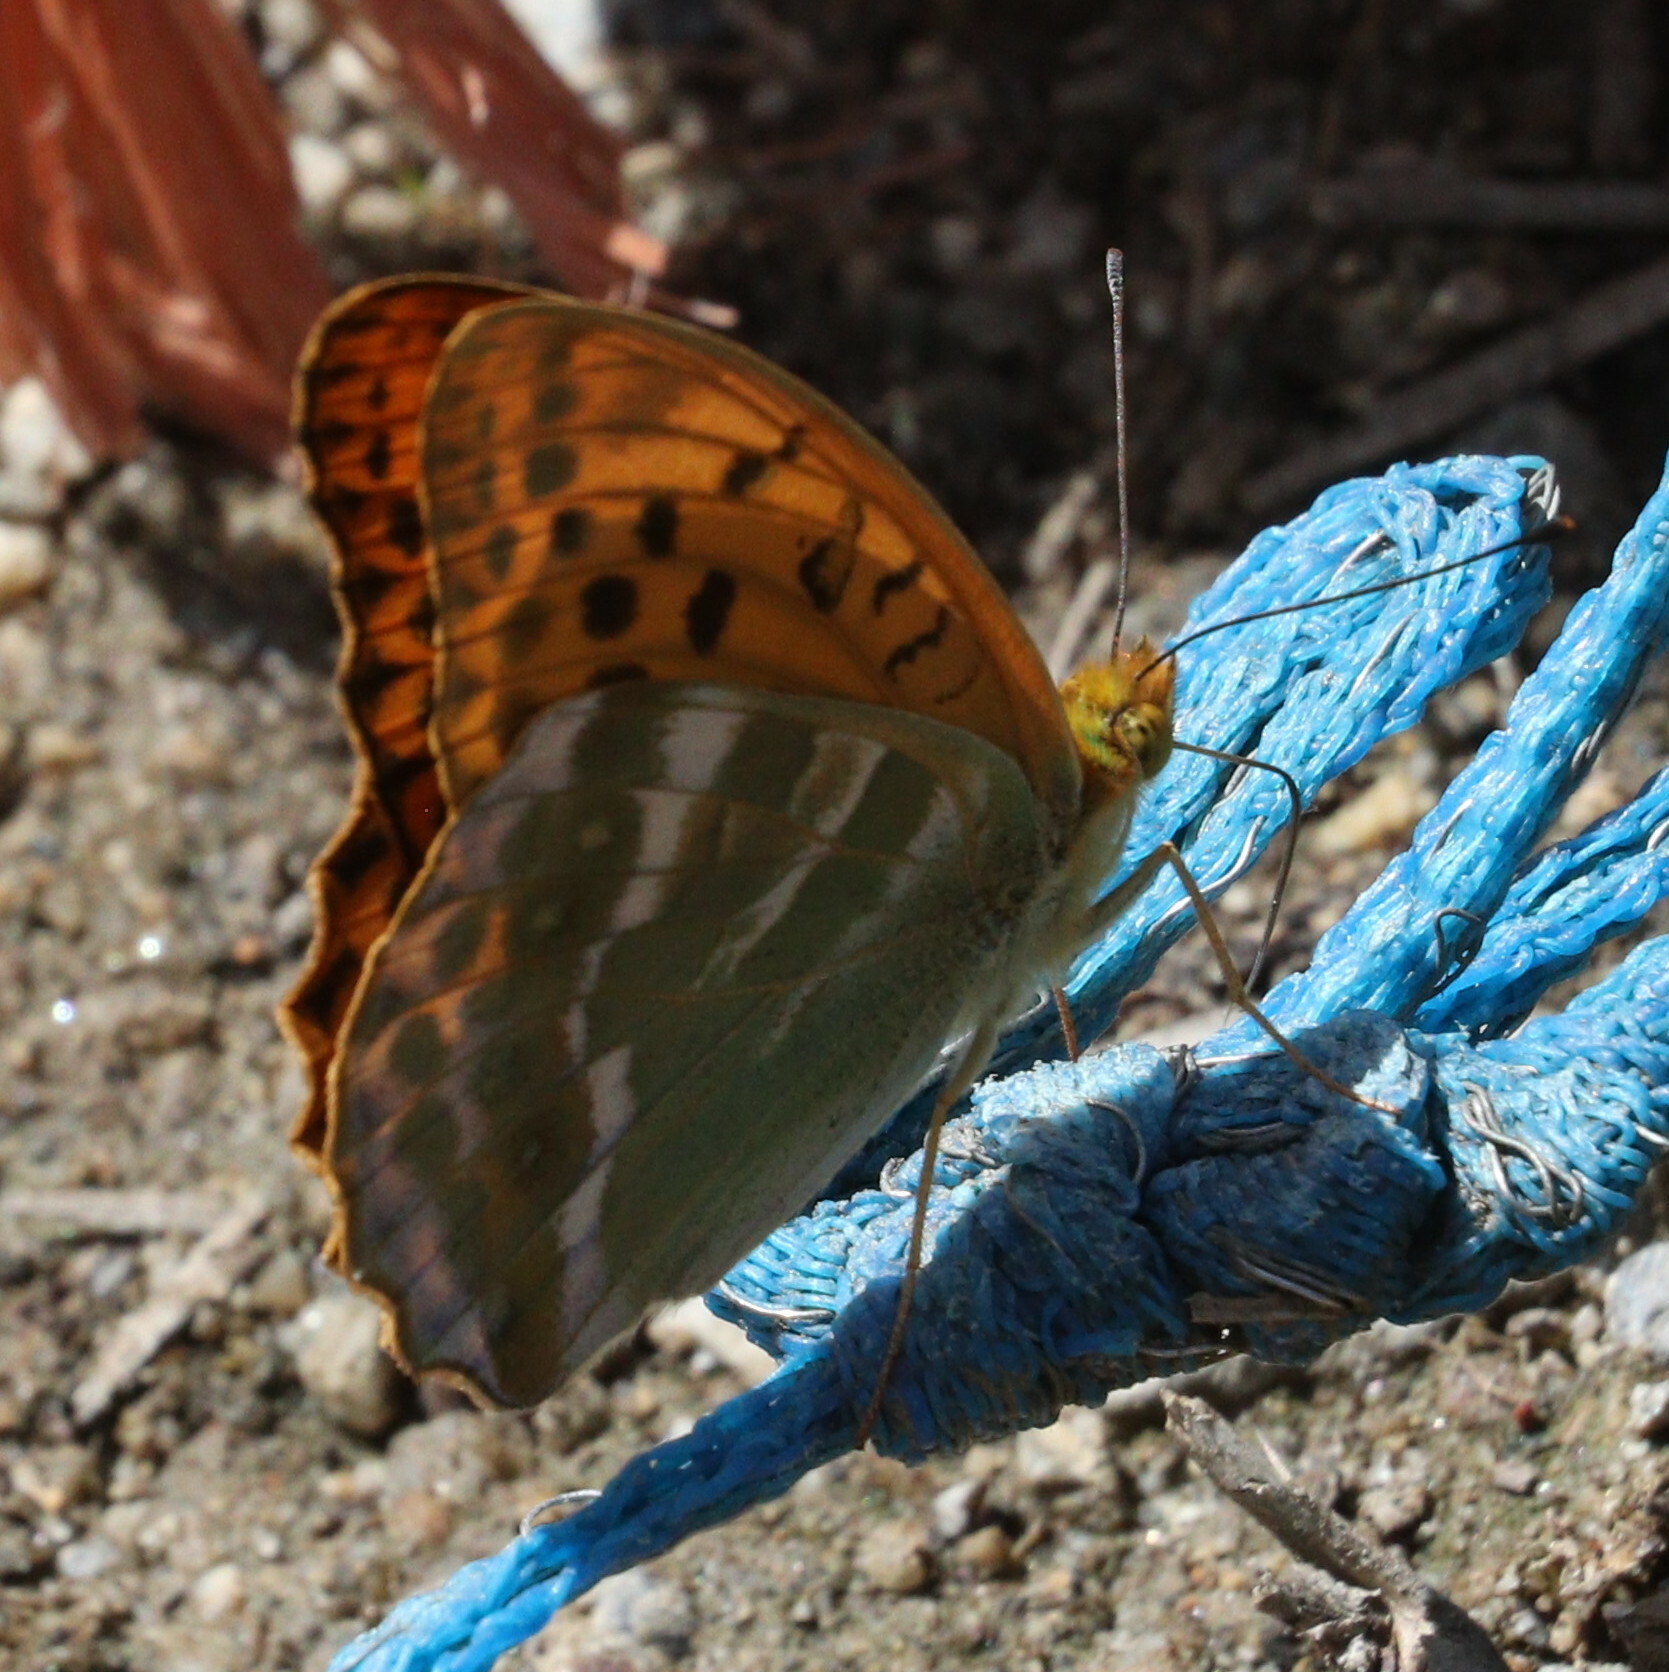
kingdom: Animalia
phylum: Arthropoda
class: Insecta
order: Lepidoptera
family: Nymphalidae
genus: Argynnis
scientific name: Argynnis paphia
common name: Silver-washed fritillary
